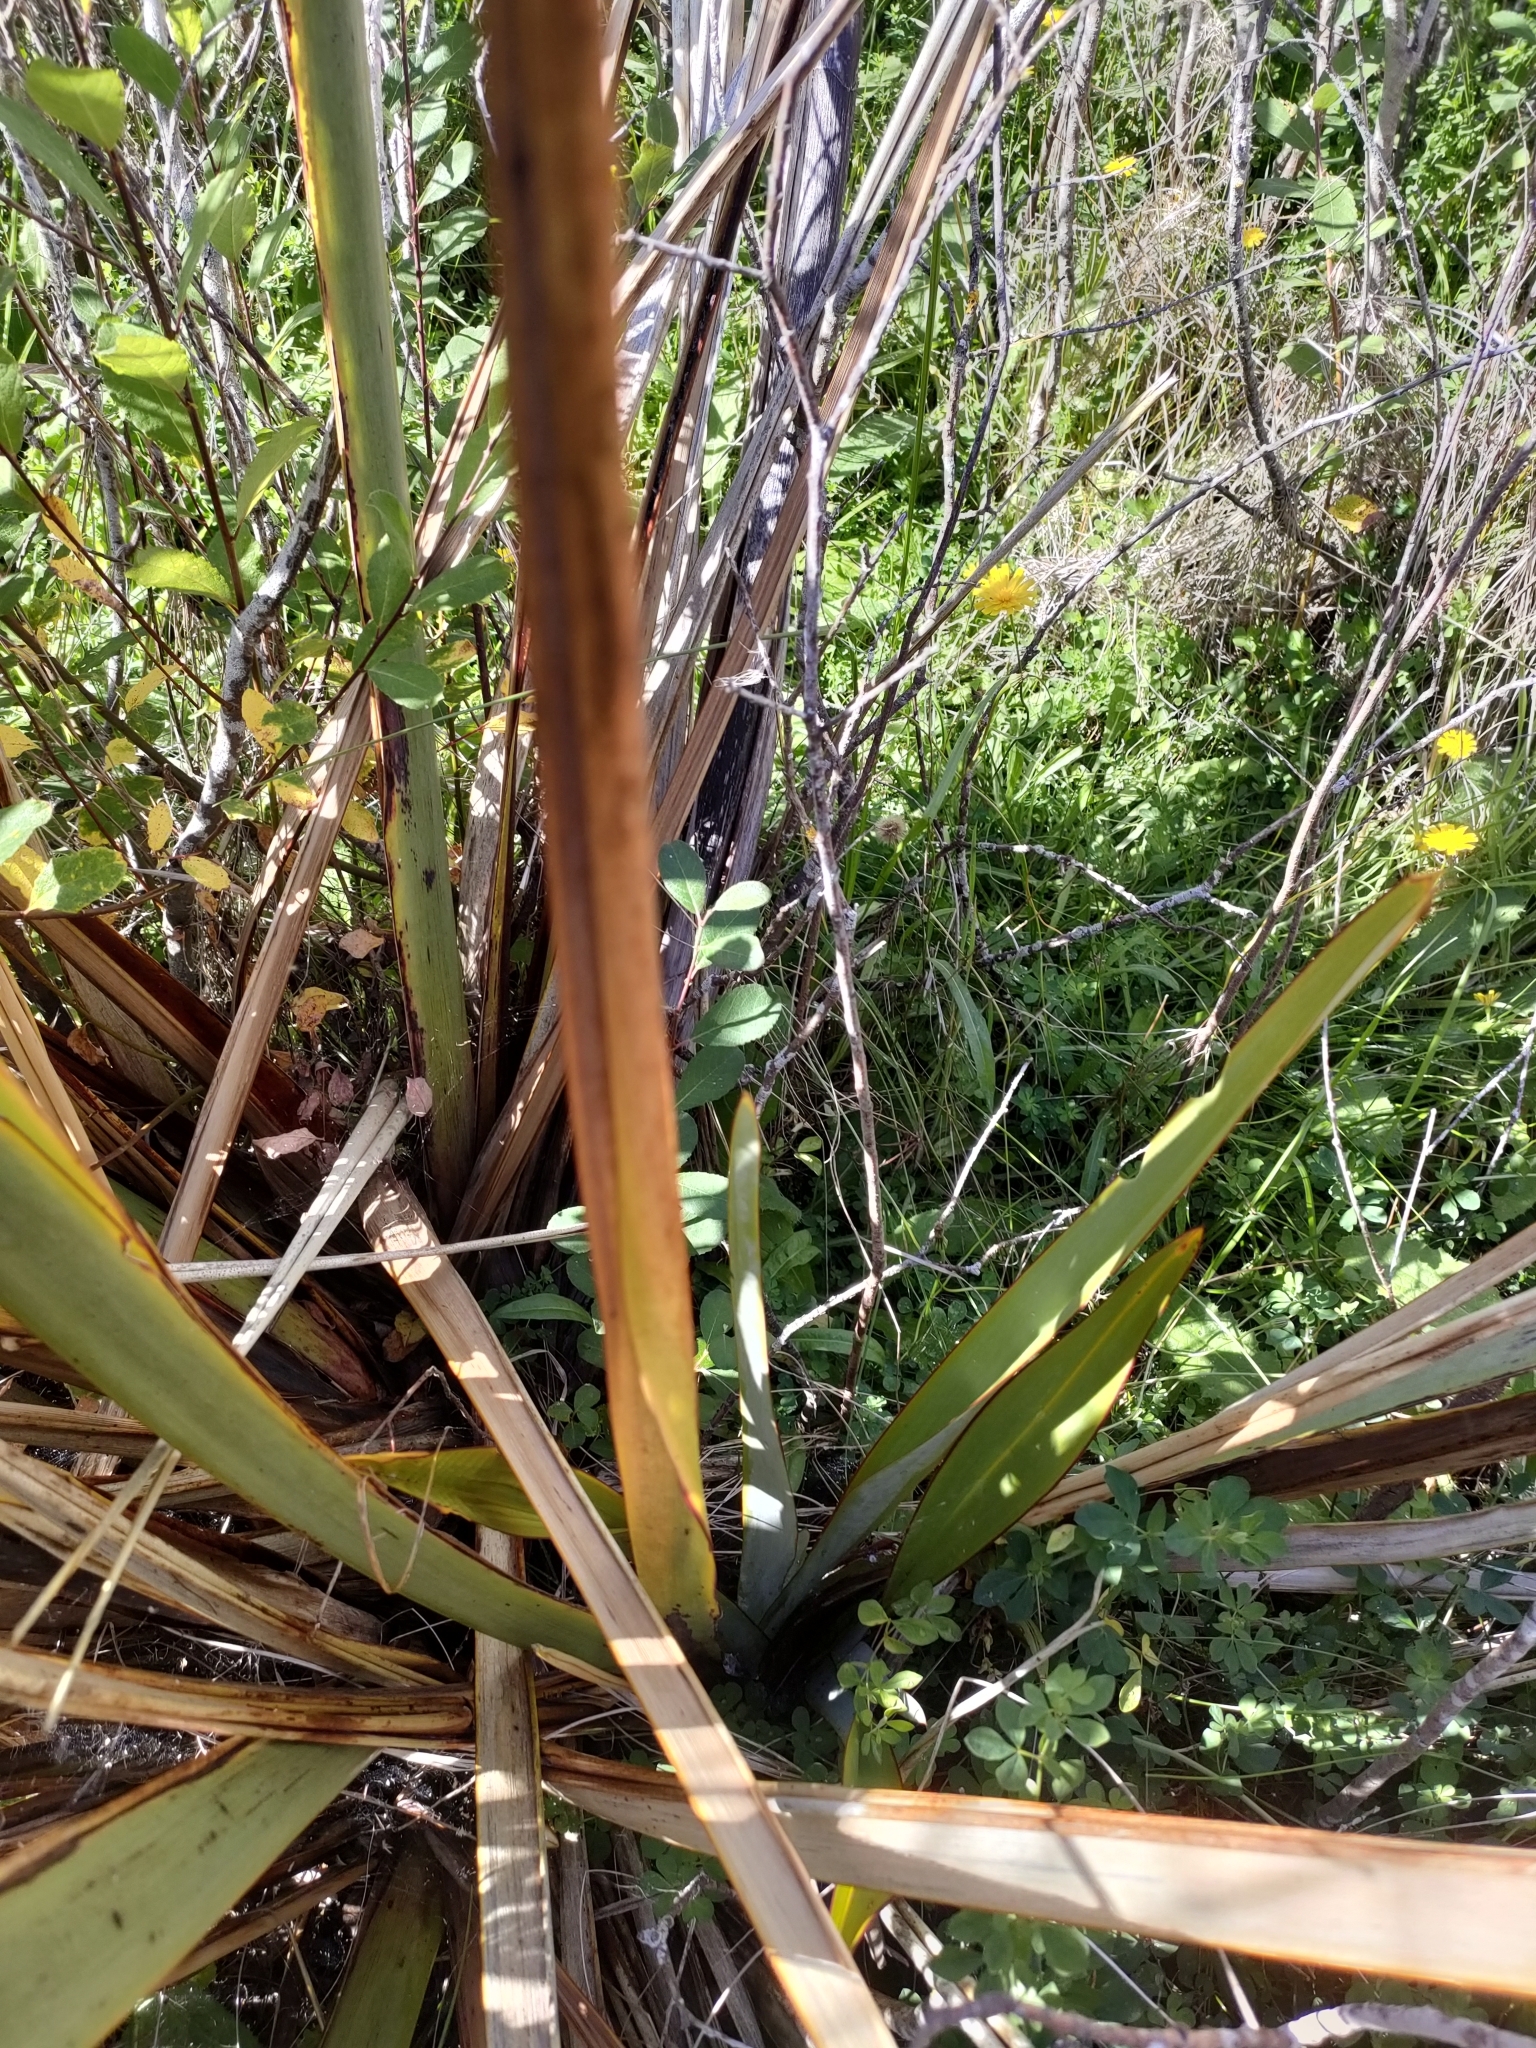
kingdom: Plantae
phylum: Tracheophyta
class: Liliopsida
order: Asparagales
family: Asphodelaceae
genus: Phormium
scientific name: Phormium tenax
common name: New zealand flax
